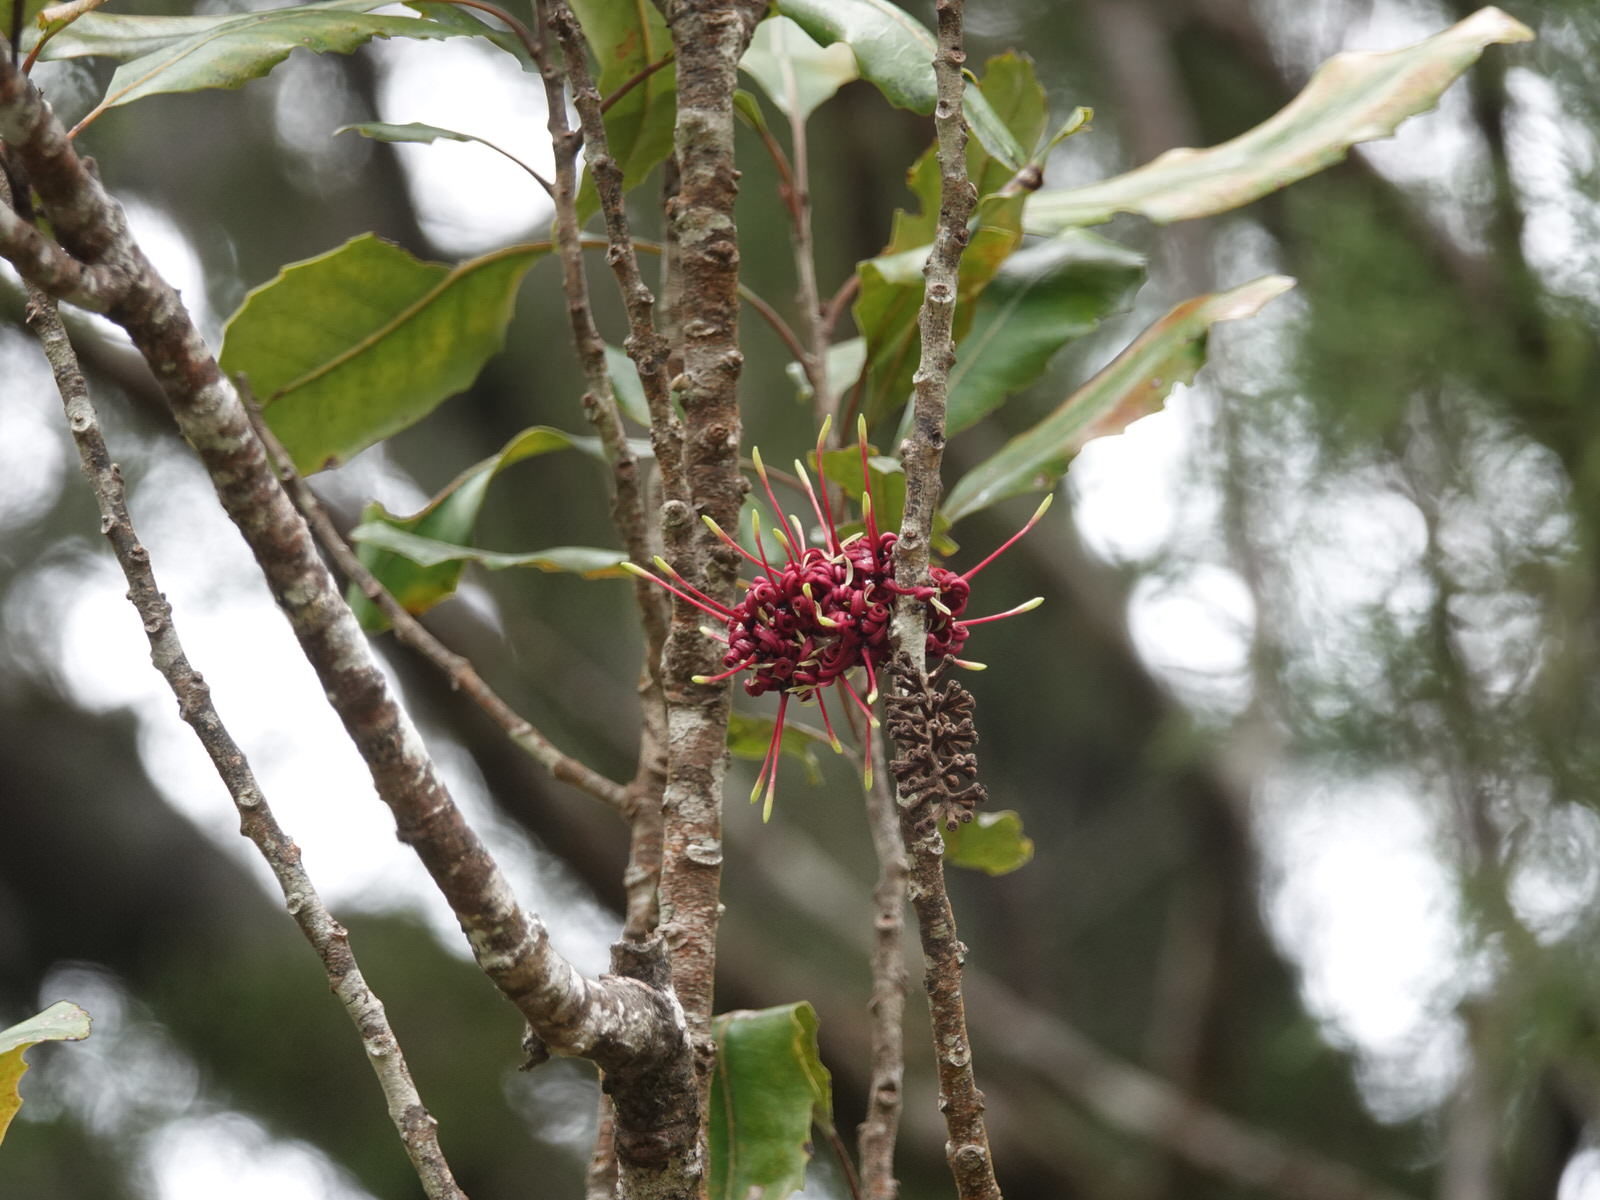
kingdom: Plantae
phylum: Tracheophyta
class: Magnoliopsida
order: Proteales
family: Proteaceae
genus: Knightia
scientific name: Knightia excelsa
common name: New zealand-honeysuckle
